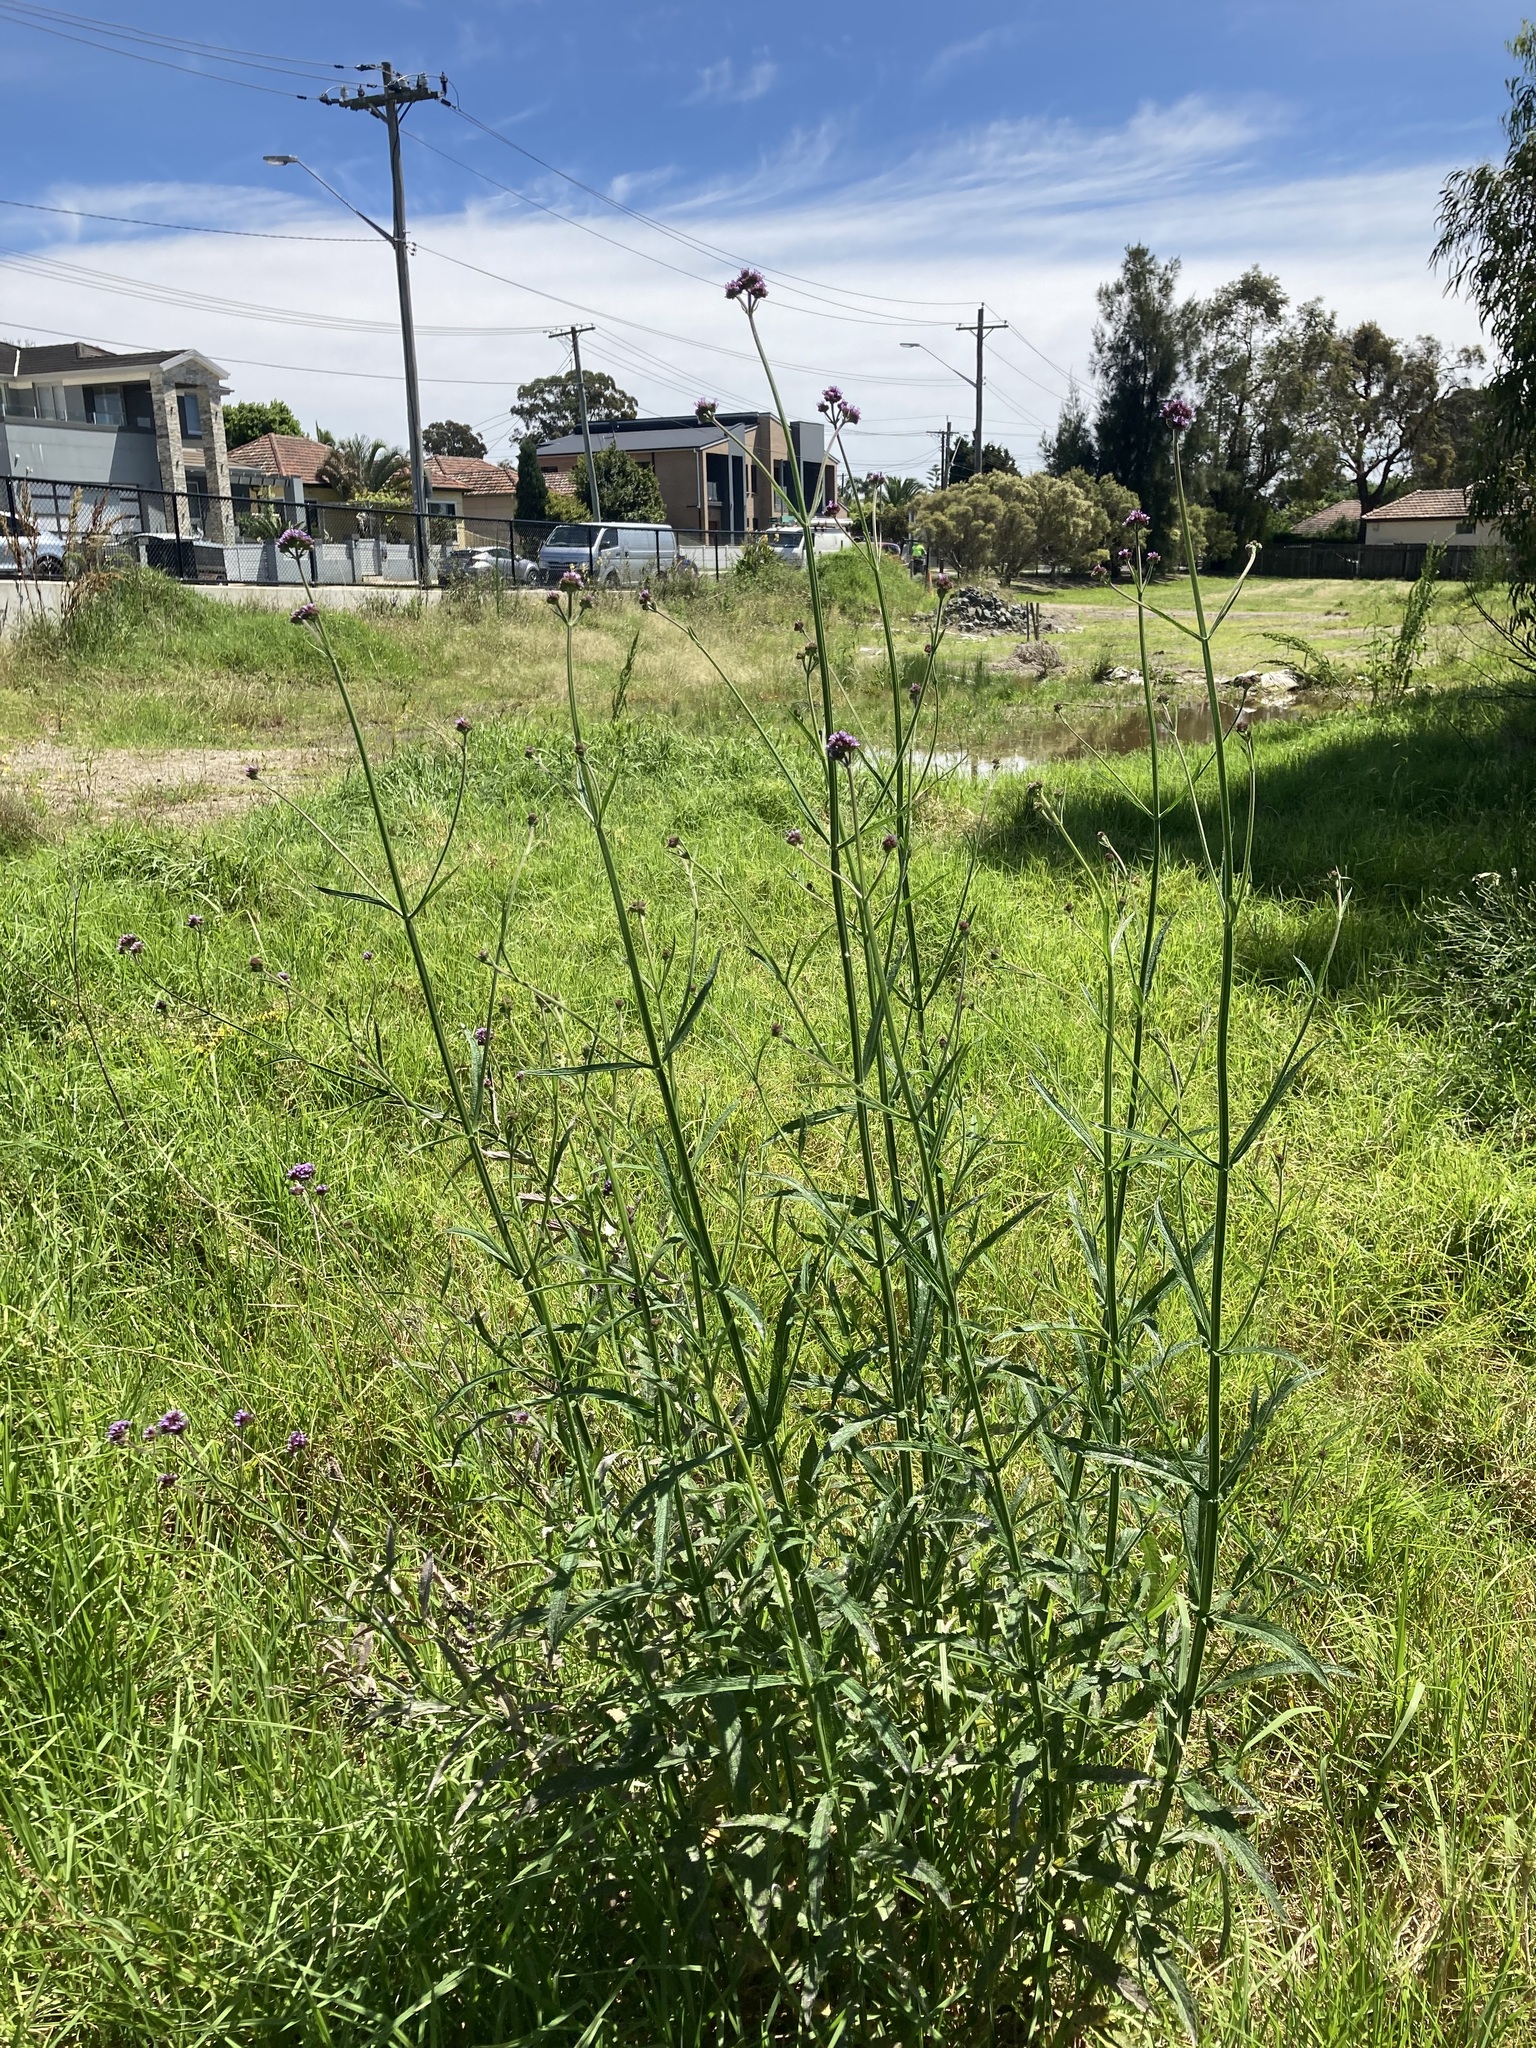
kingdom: Plantae
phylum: Tracheophyta
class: Magnoliopsida
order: Lamiales
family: Verbenaceae
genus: Verbena
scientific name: Verbena bonariensis
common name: Purpletop vervain
